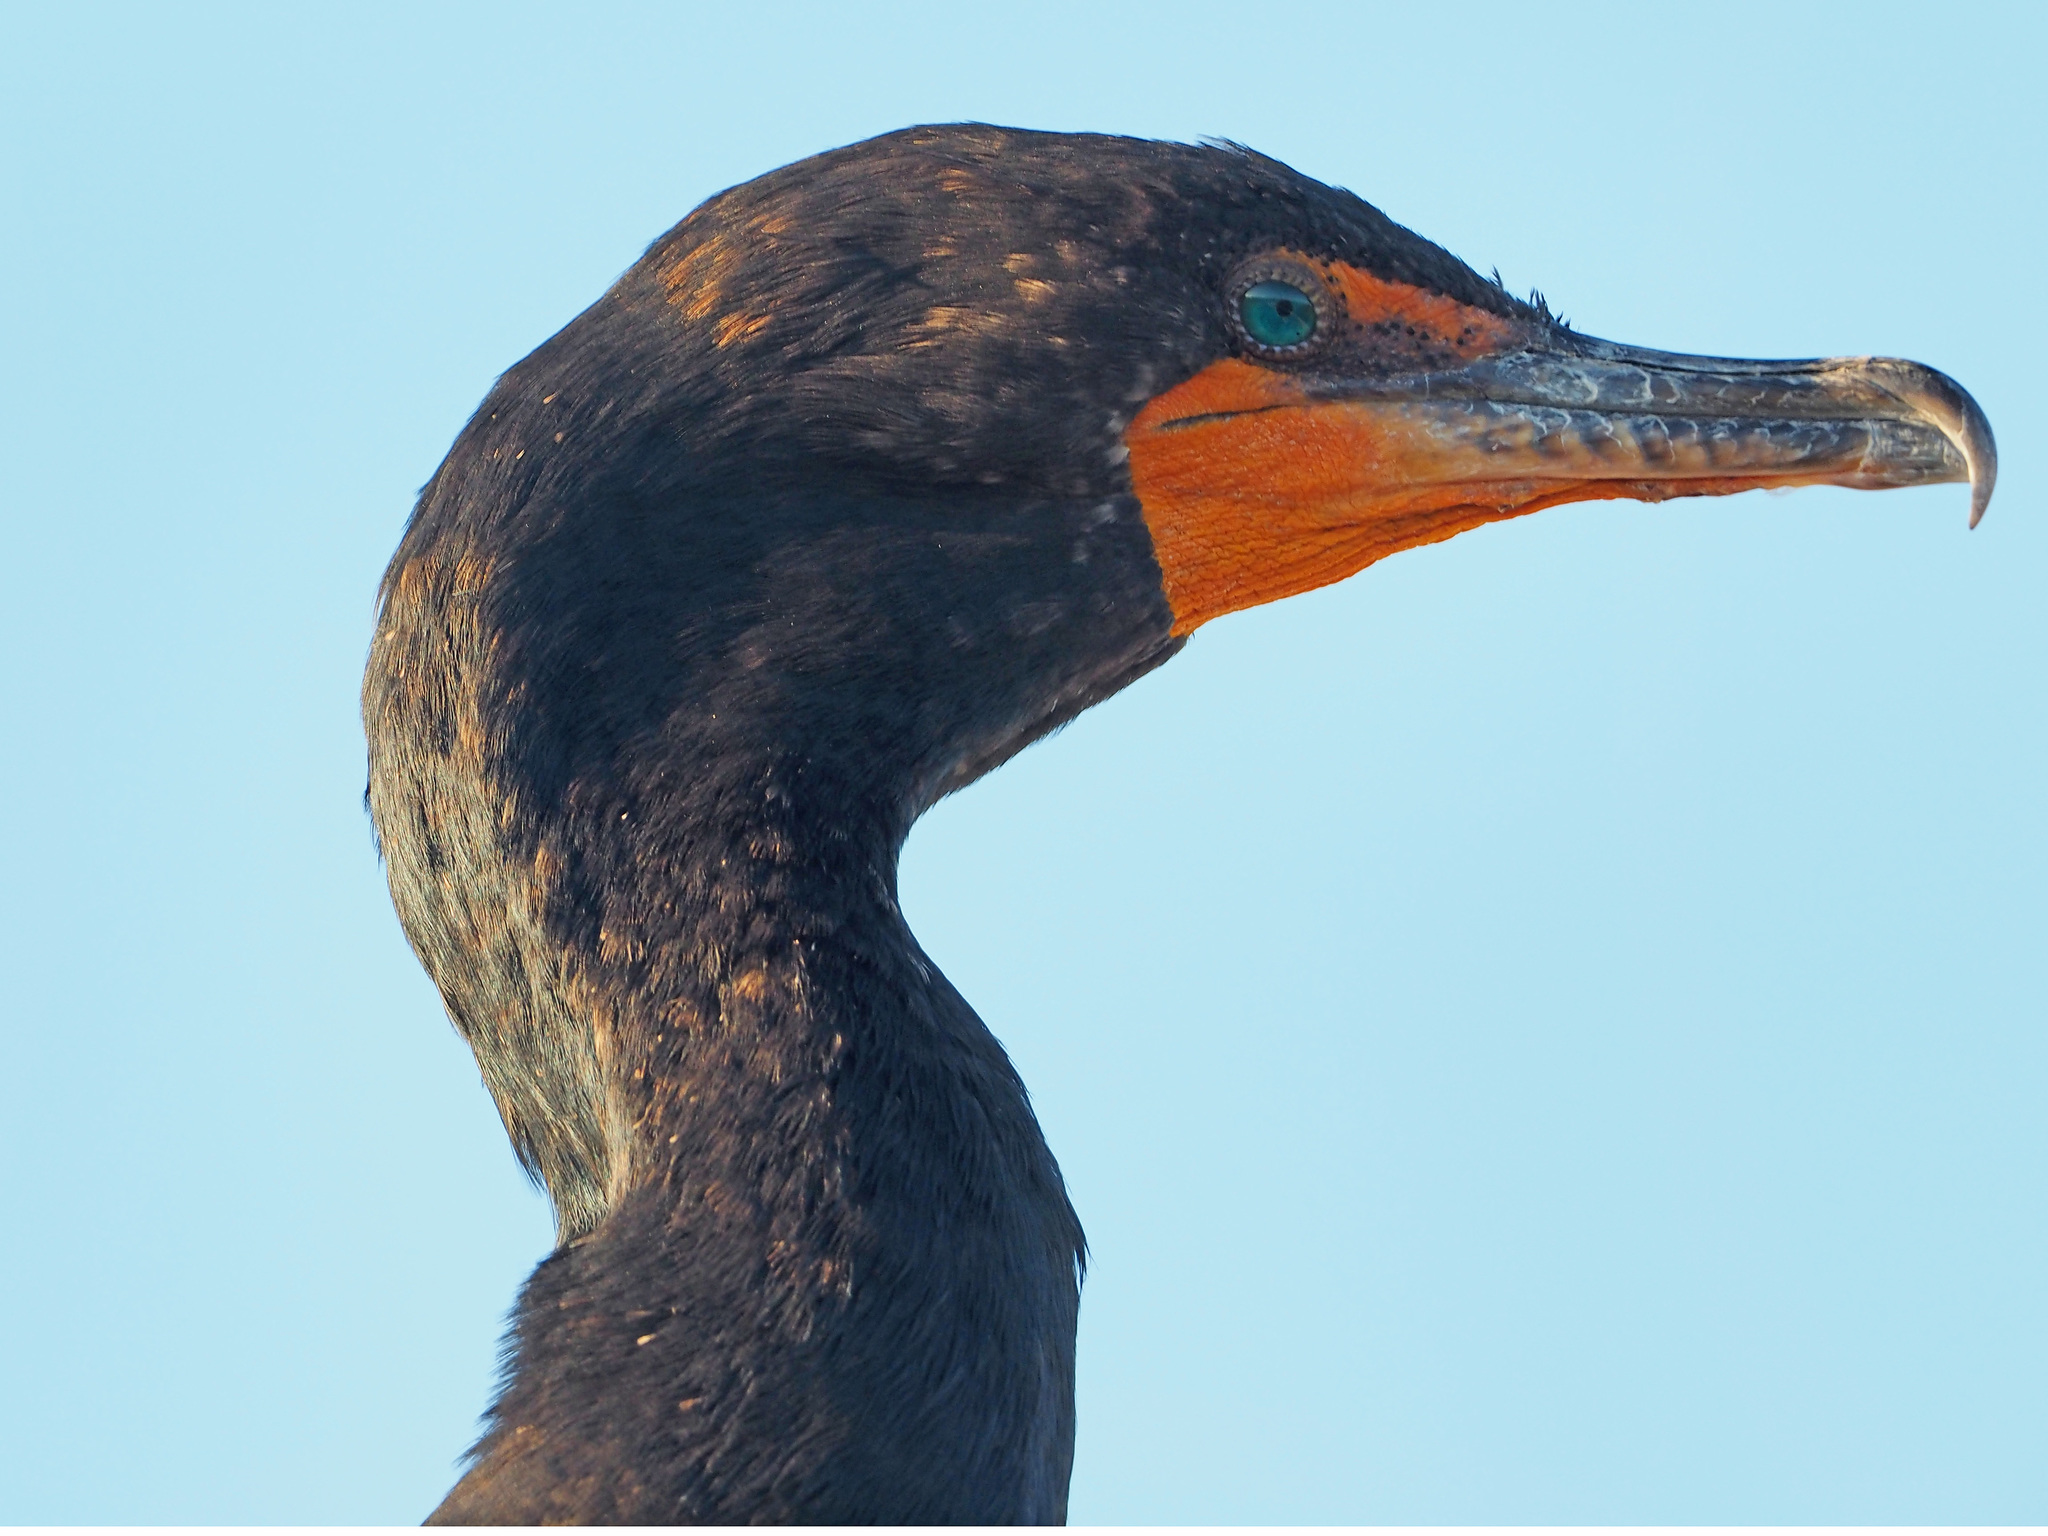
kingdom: Animalia
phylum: Chordata
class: Aves
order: Suliformes
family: Phalacrocoracidae
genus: Phalacrocorax
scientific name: Phalacrocorax auritus
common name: Double-crested cormorant
